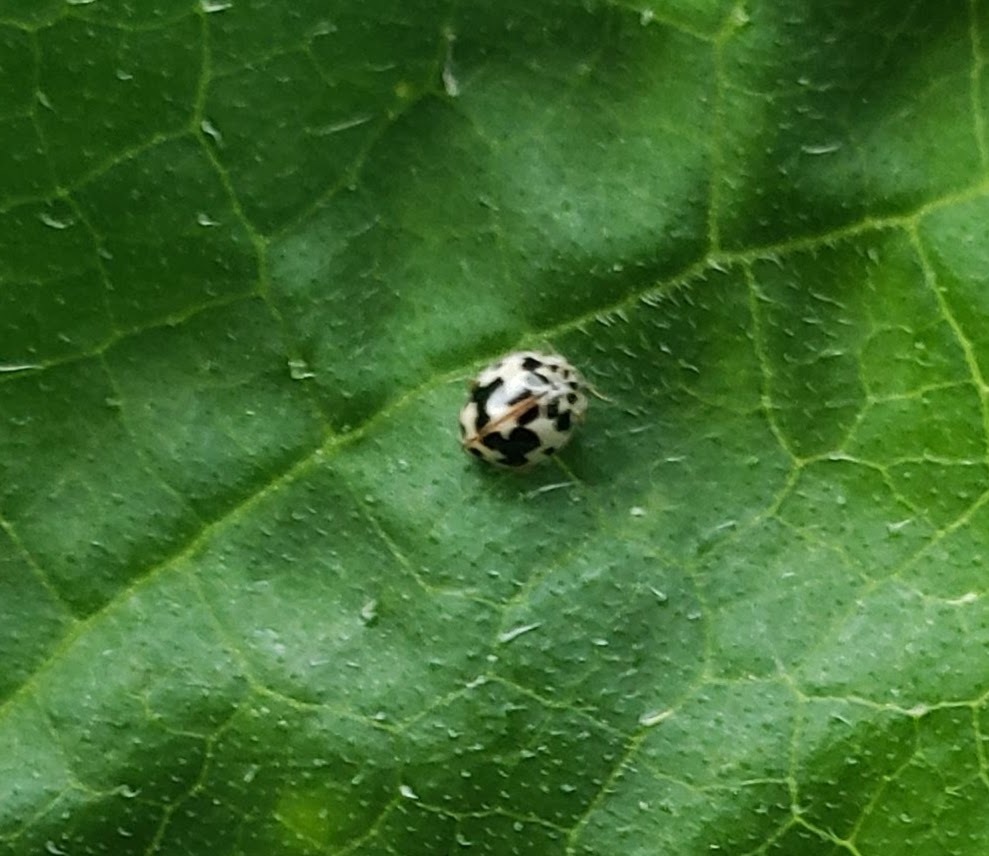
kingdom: Animalia
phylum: Arthropoda
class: Insecta
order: Coleoptera
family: Coccinellidae
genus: Psyllobora
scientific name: Psyllobora borealis
